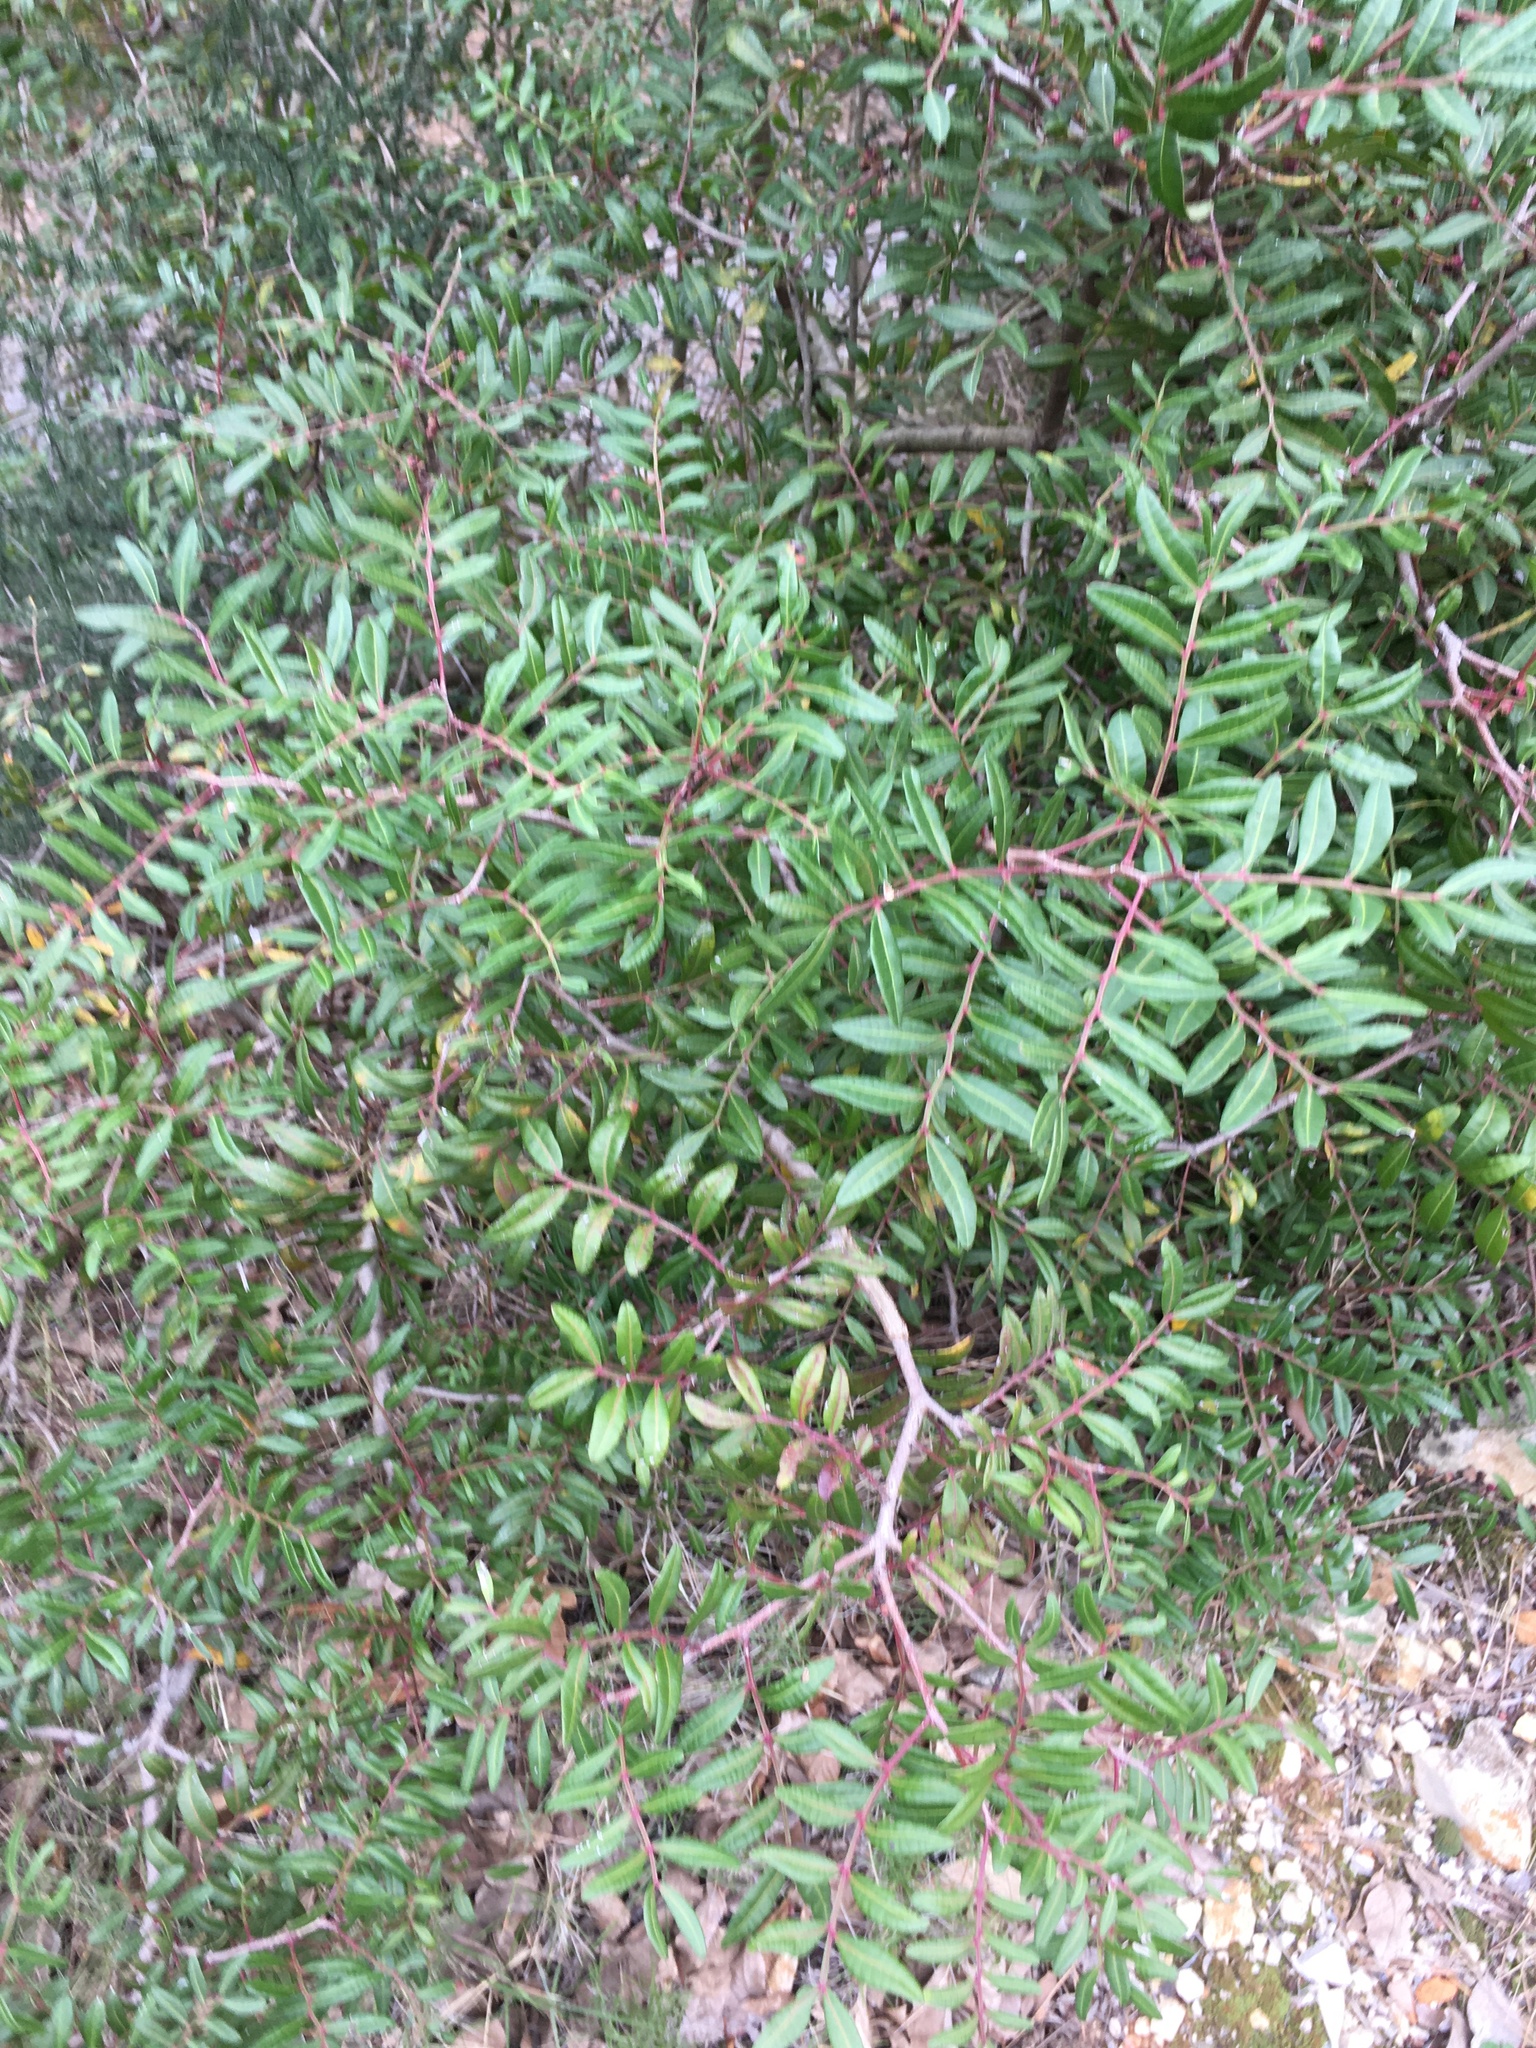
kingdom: Plantae
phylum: Tracheophyta
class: Magnoliopsida
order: Sapindales
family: Anacardiaceae
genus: Pistacia
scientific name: Pistacia lentiscus
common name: Lentisk
